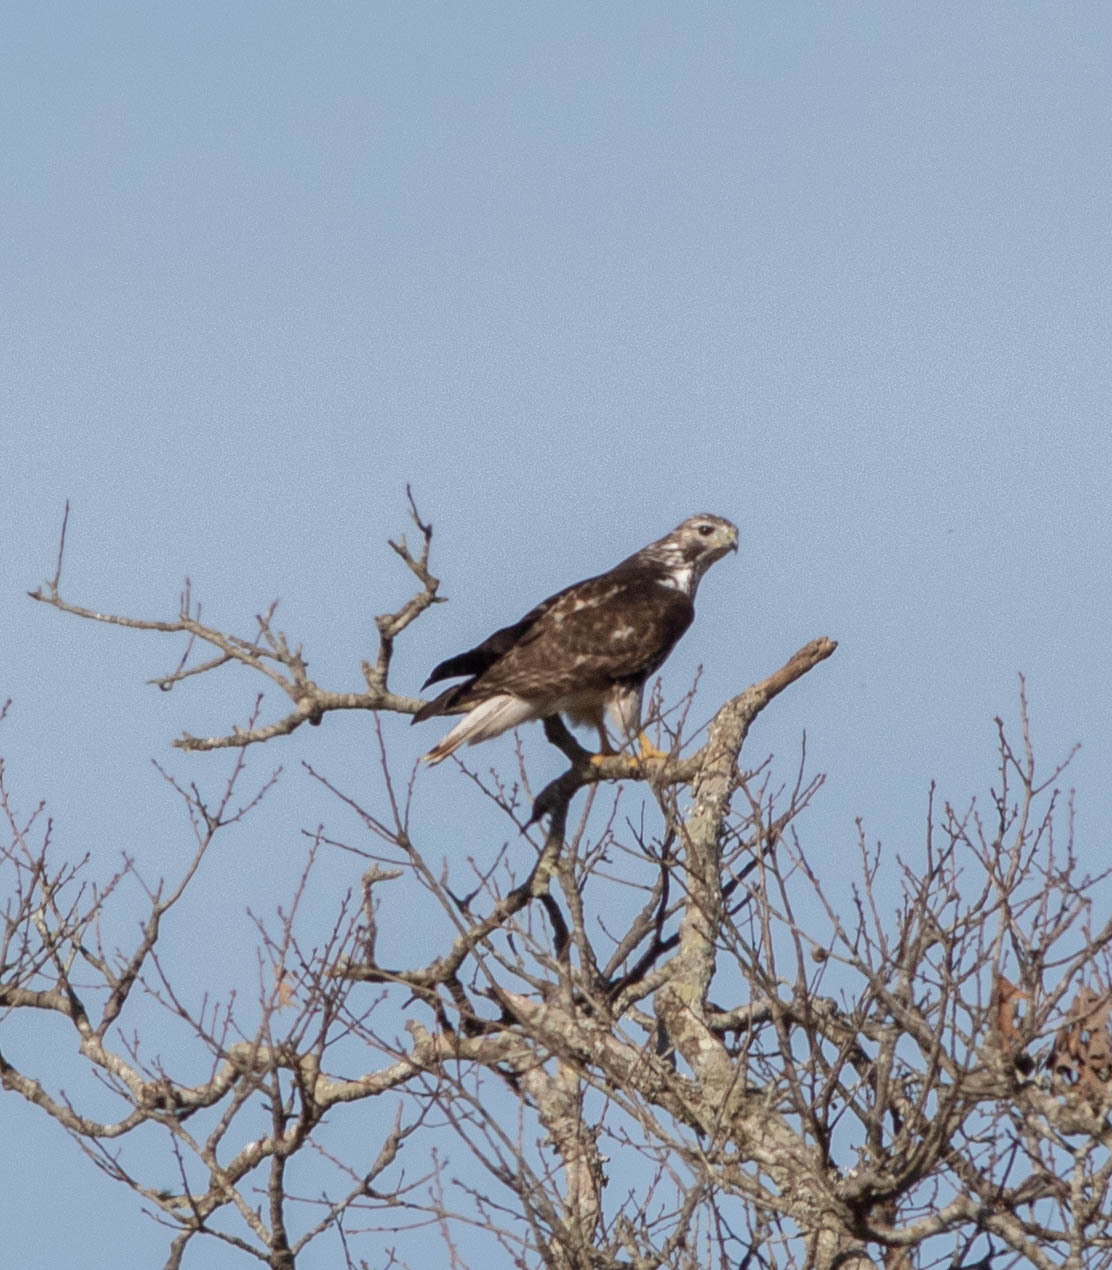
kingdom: Animalia
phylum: Chordata
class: Aves
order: Accipitriformes
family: Accipitridae
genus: Buteo
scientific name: Buteo jamaicensis
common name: Red-tailed hawk
